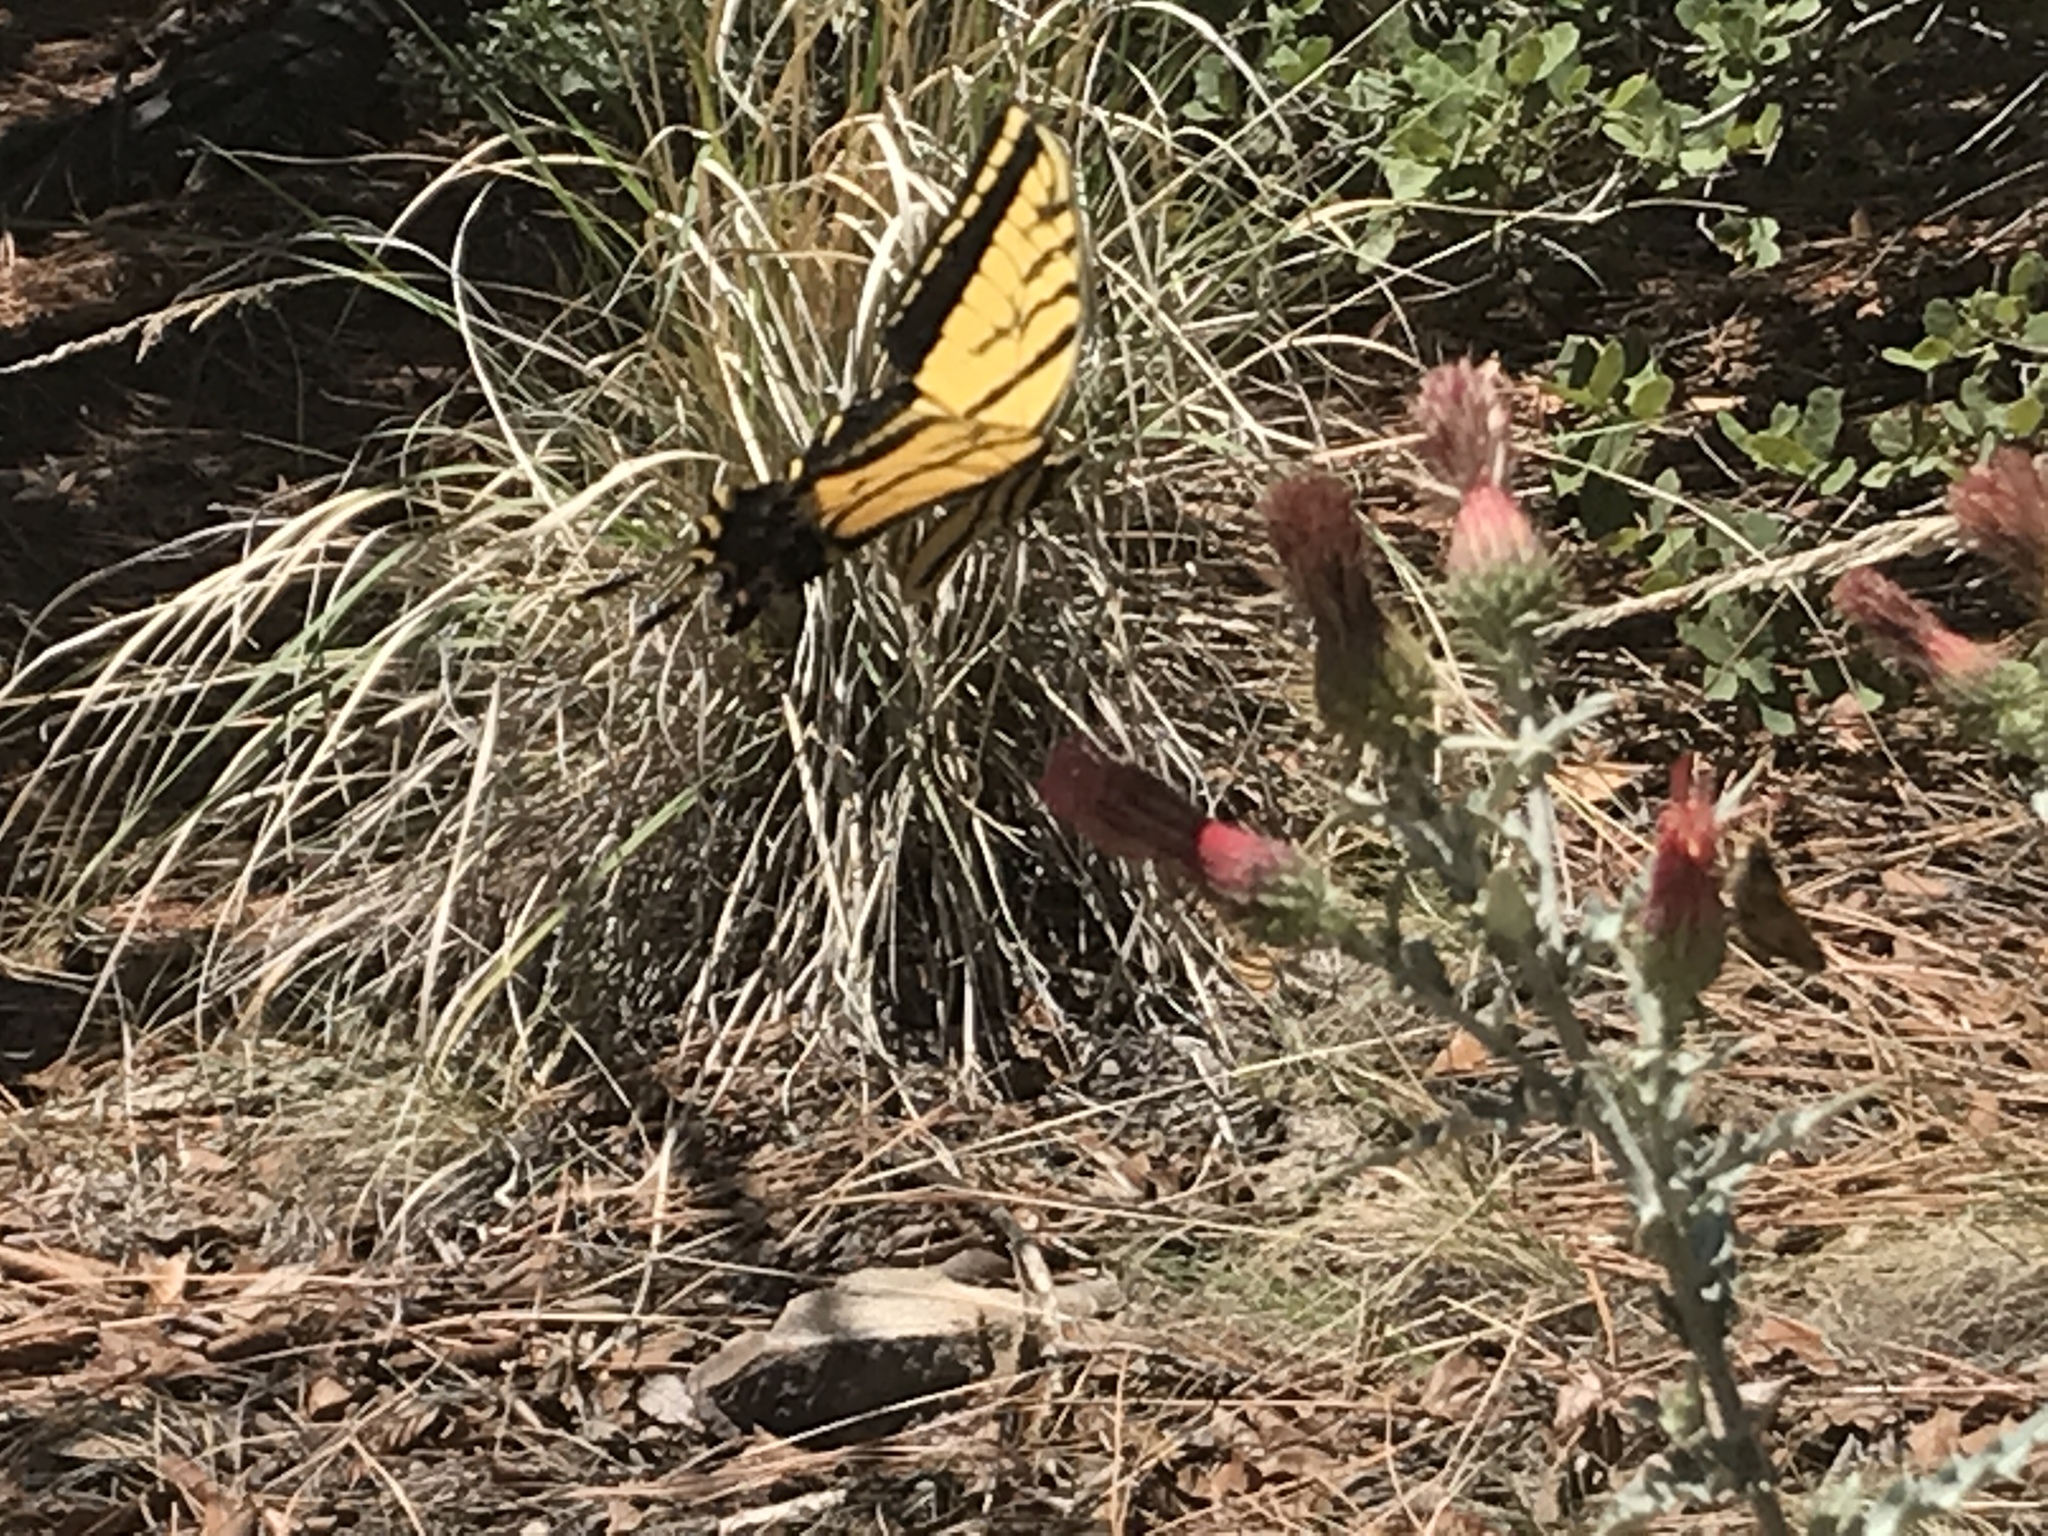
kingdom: Animalia
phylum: Arthropoda
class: Insecta
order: Lepidoptera
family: Papilionidae
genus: Papilio
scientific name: Papilio multicaudata
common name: Two-tailed tiger swallowtail
